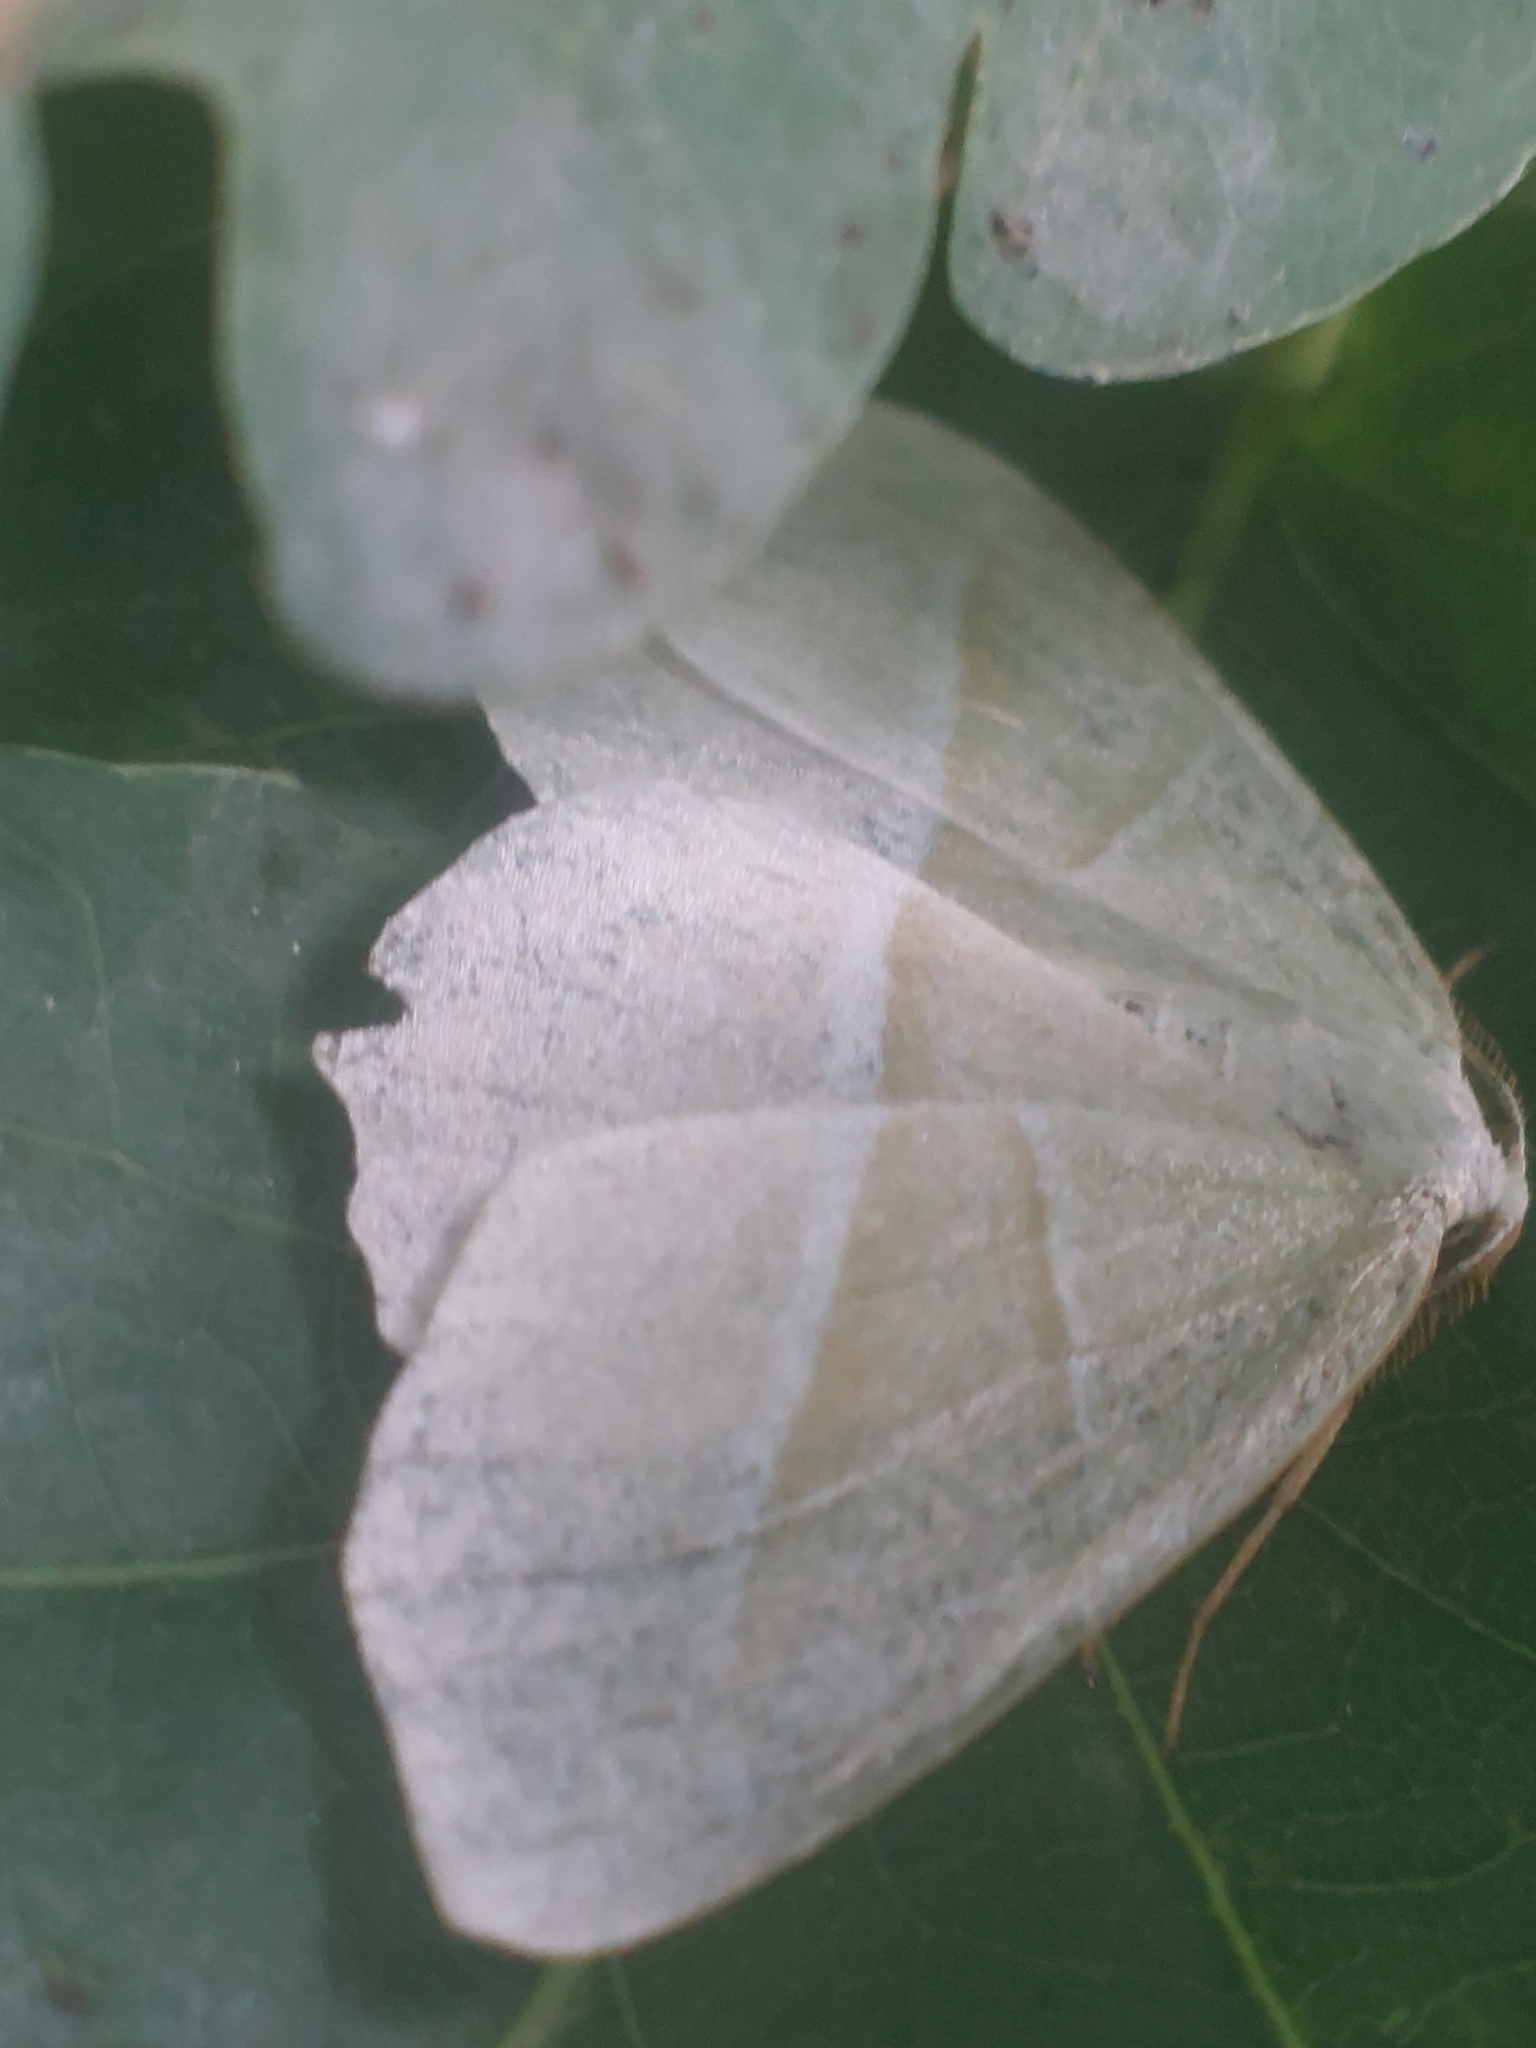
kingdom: Animalia
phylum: Arthropoda
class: Insecta
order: Lepidoptera
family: Geometridae
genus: Campaea
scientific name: Campaea margaritaria
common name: Light emerald
